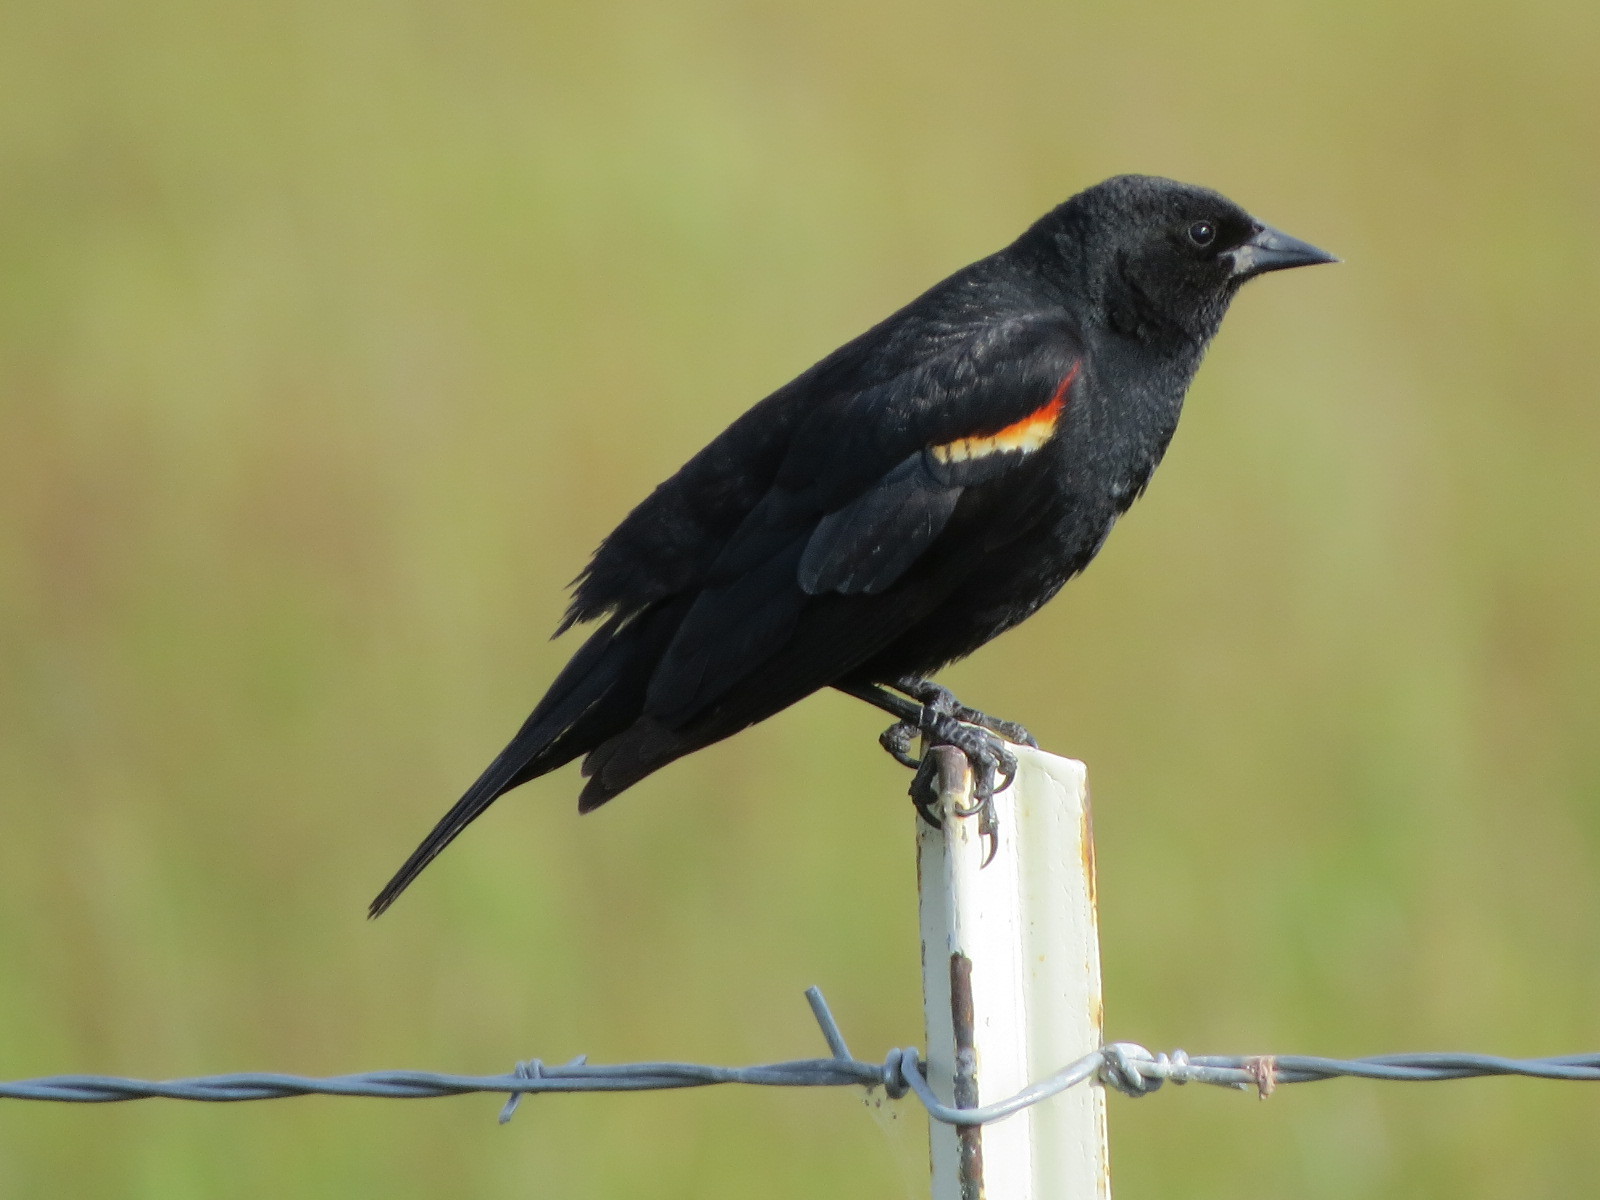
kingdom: Animalia
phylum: Chordata
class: Aves
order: Passeriformes
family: Icteridae
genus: Agelaius
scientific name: Agelaius phoeniceus
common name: Red-winged blackbird
